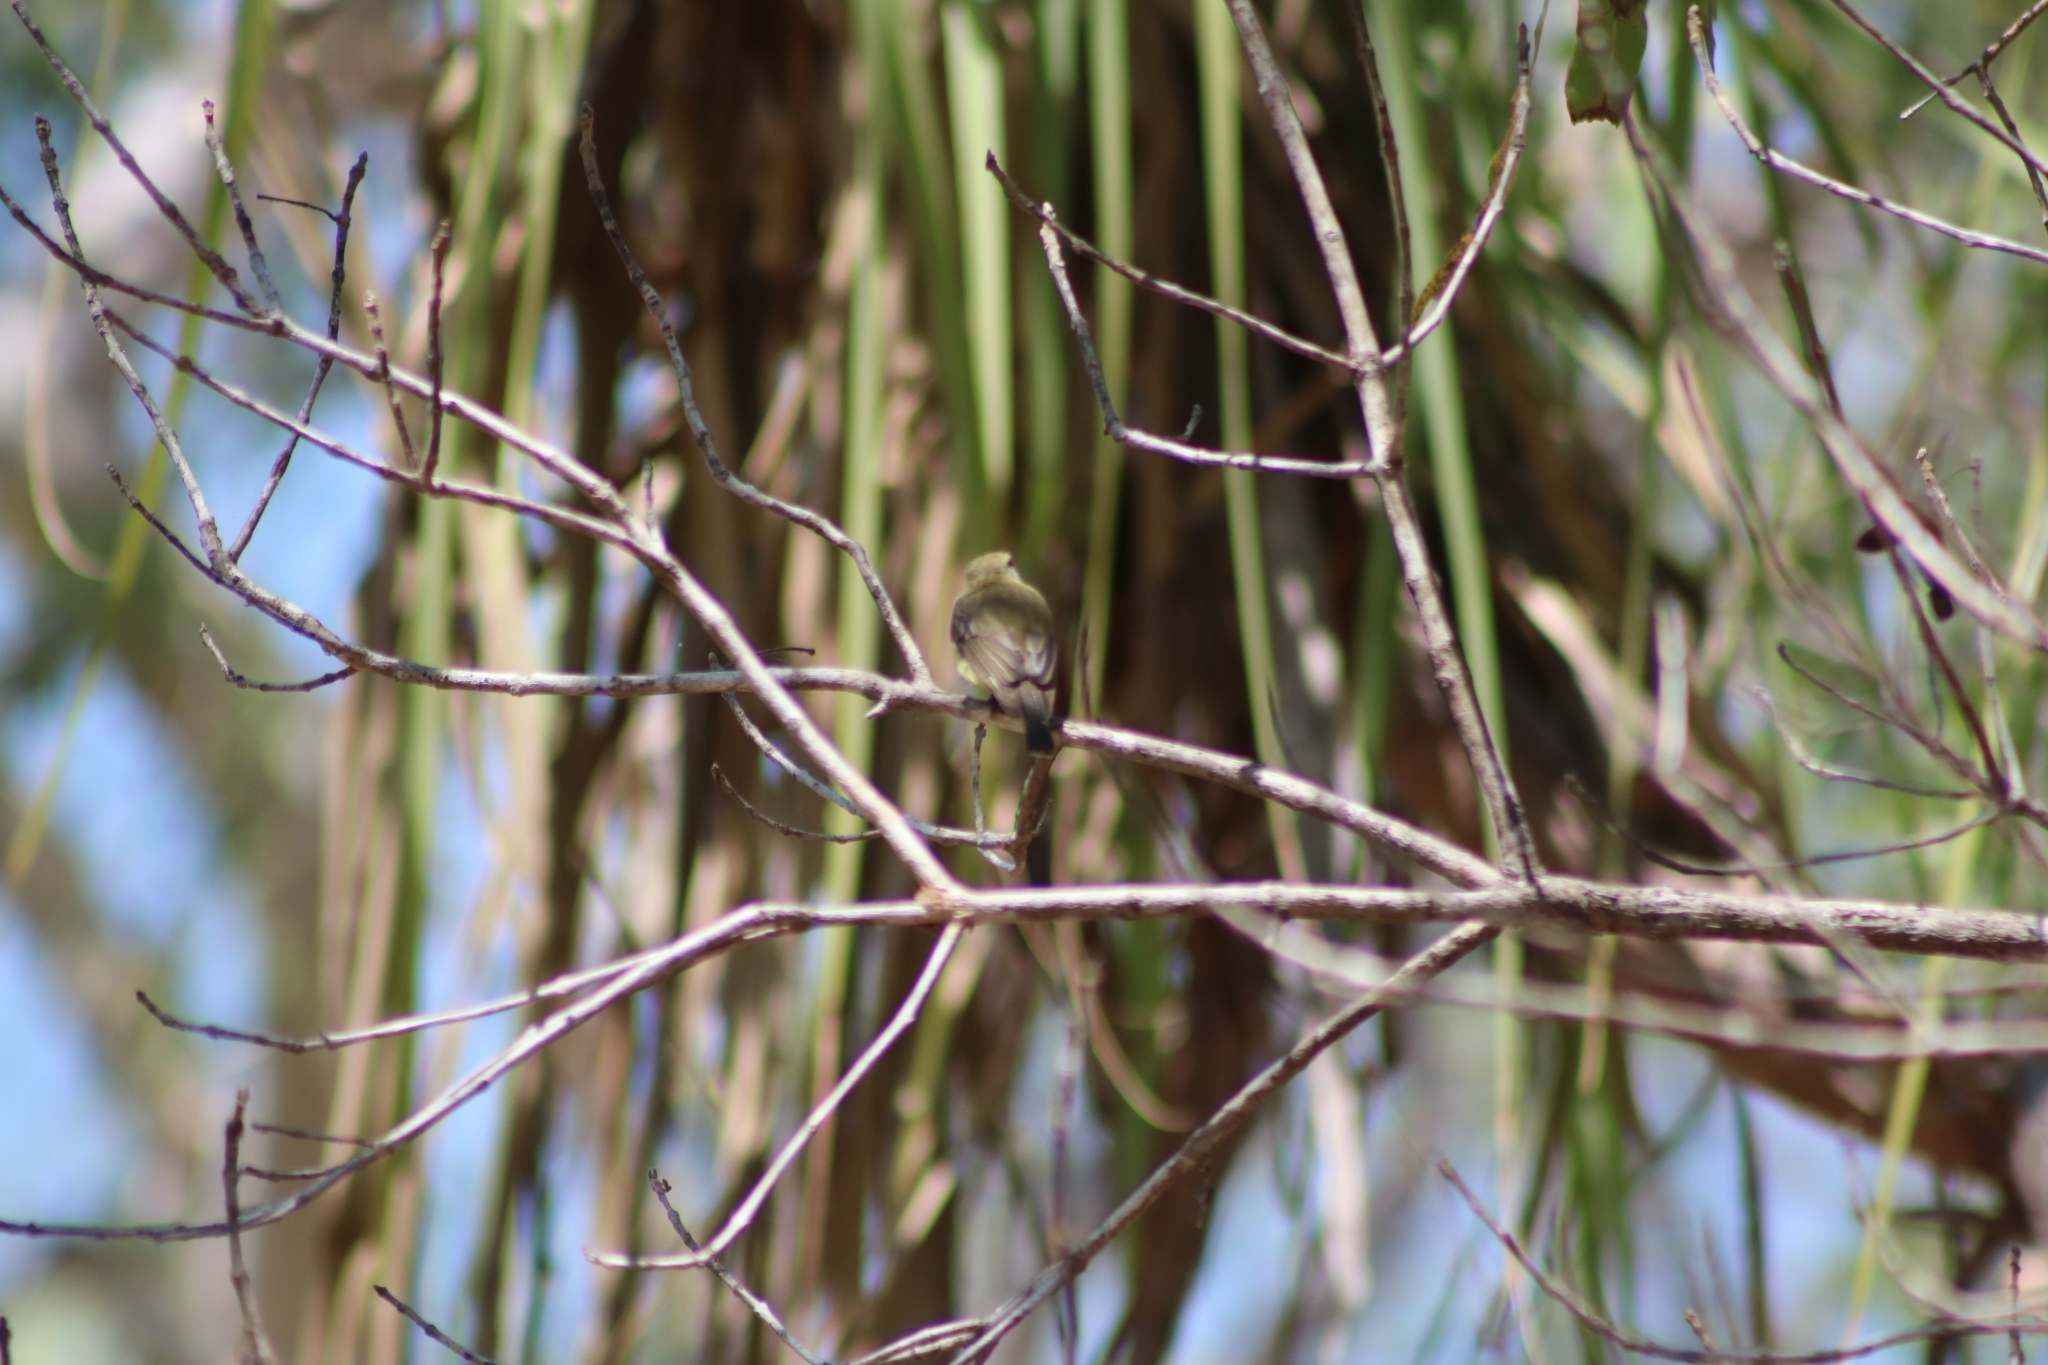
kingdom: Animalia
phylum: Chordata
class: Aves
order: Passeriformes
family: Petroicidae
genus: Microeca
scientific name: Microeca flavigaster
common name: Lemon-bellied flyrobin
